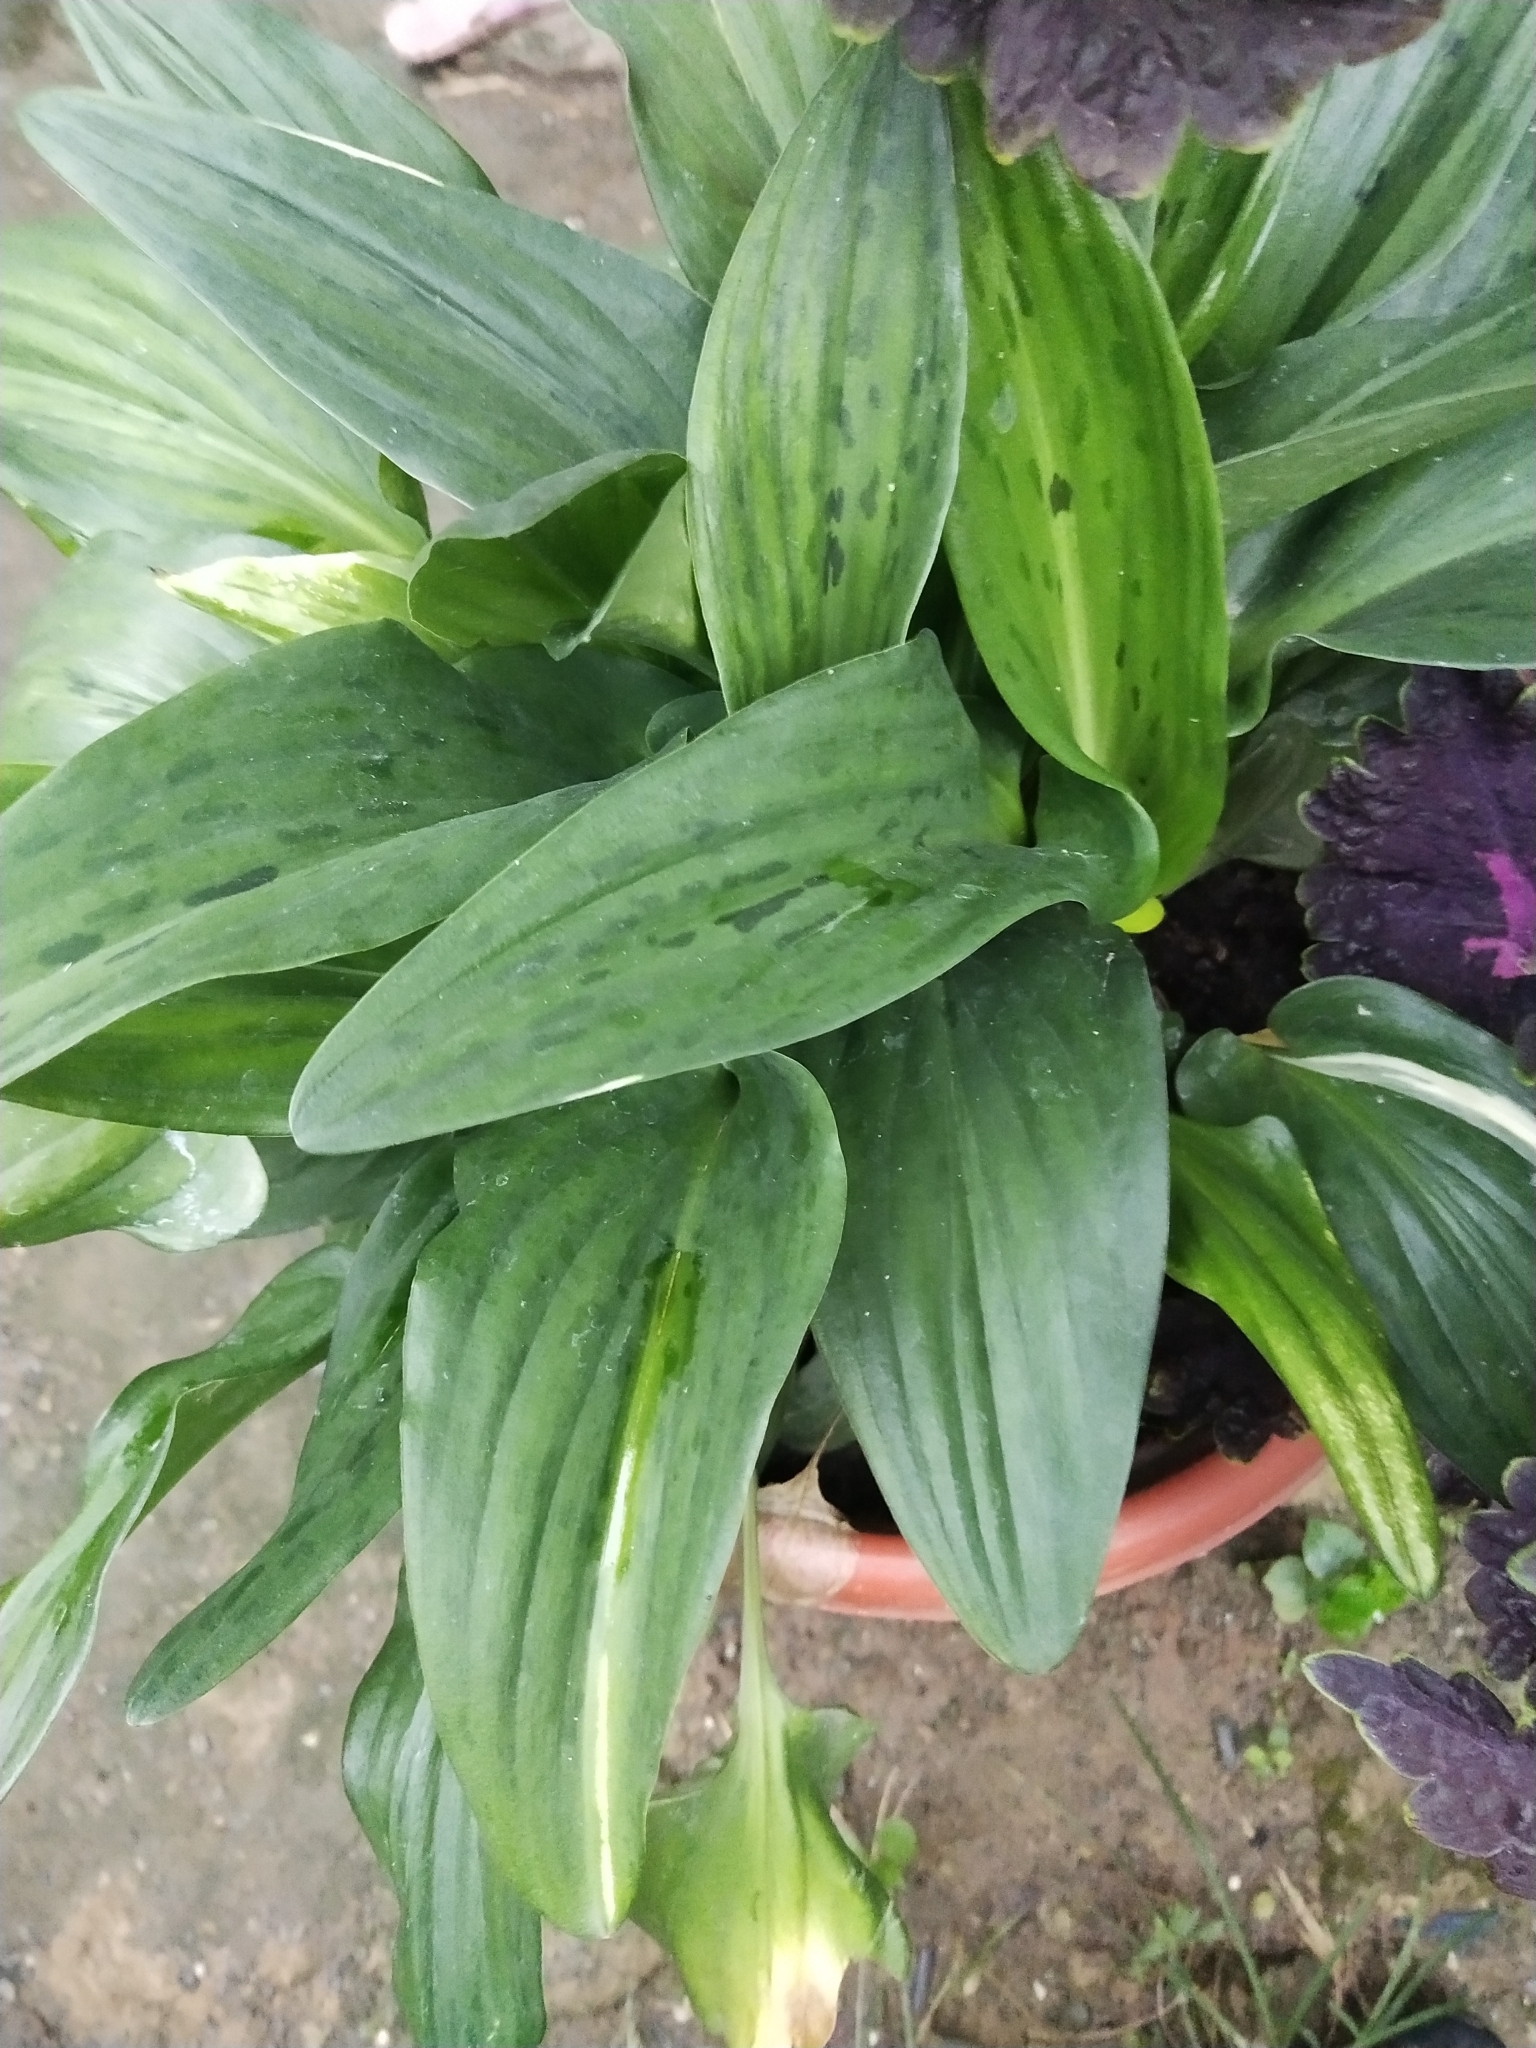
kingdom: Plantae
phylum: Tracheophyta
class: Liliopsida
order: Asparagales
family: Asparagaceae
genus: Drimiopsis
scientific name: Drimiopsis maculata
